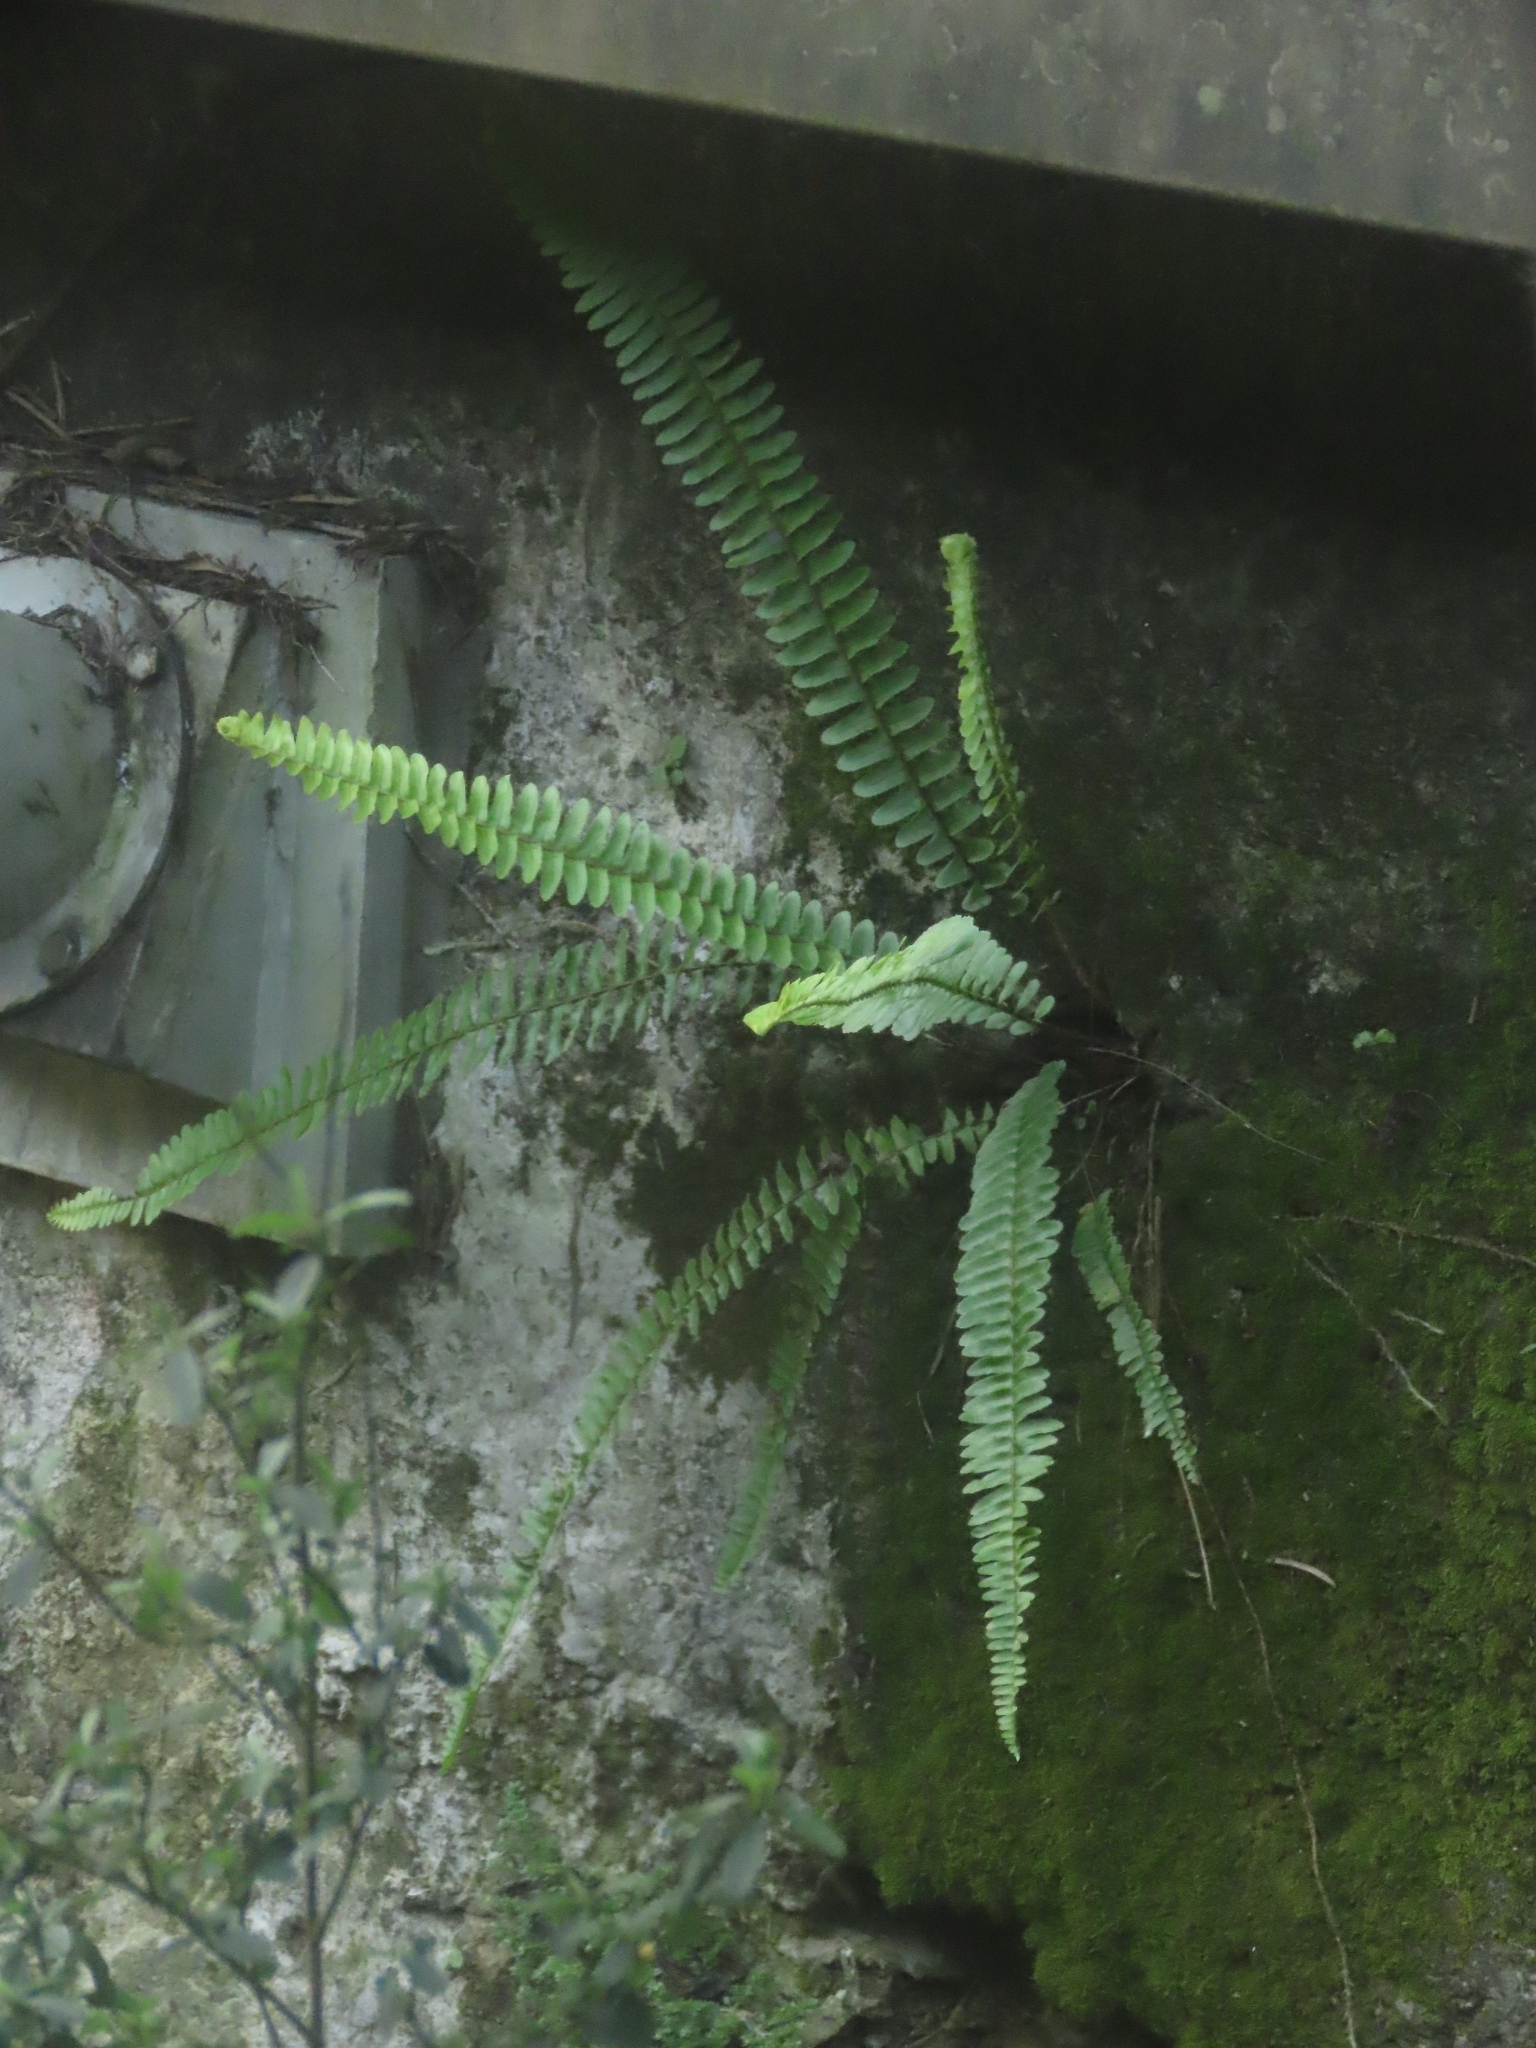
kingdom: Plantae
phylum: Tracheophyta
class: Polypodiopsida
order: Polypodiales
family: Nephrolepidaceae
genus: Nephrolepis
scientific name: Nephrolepis cordifolia
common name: Narrow swordfern
